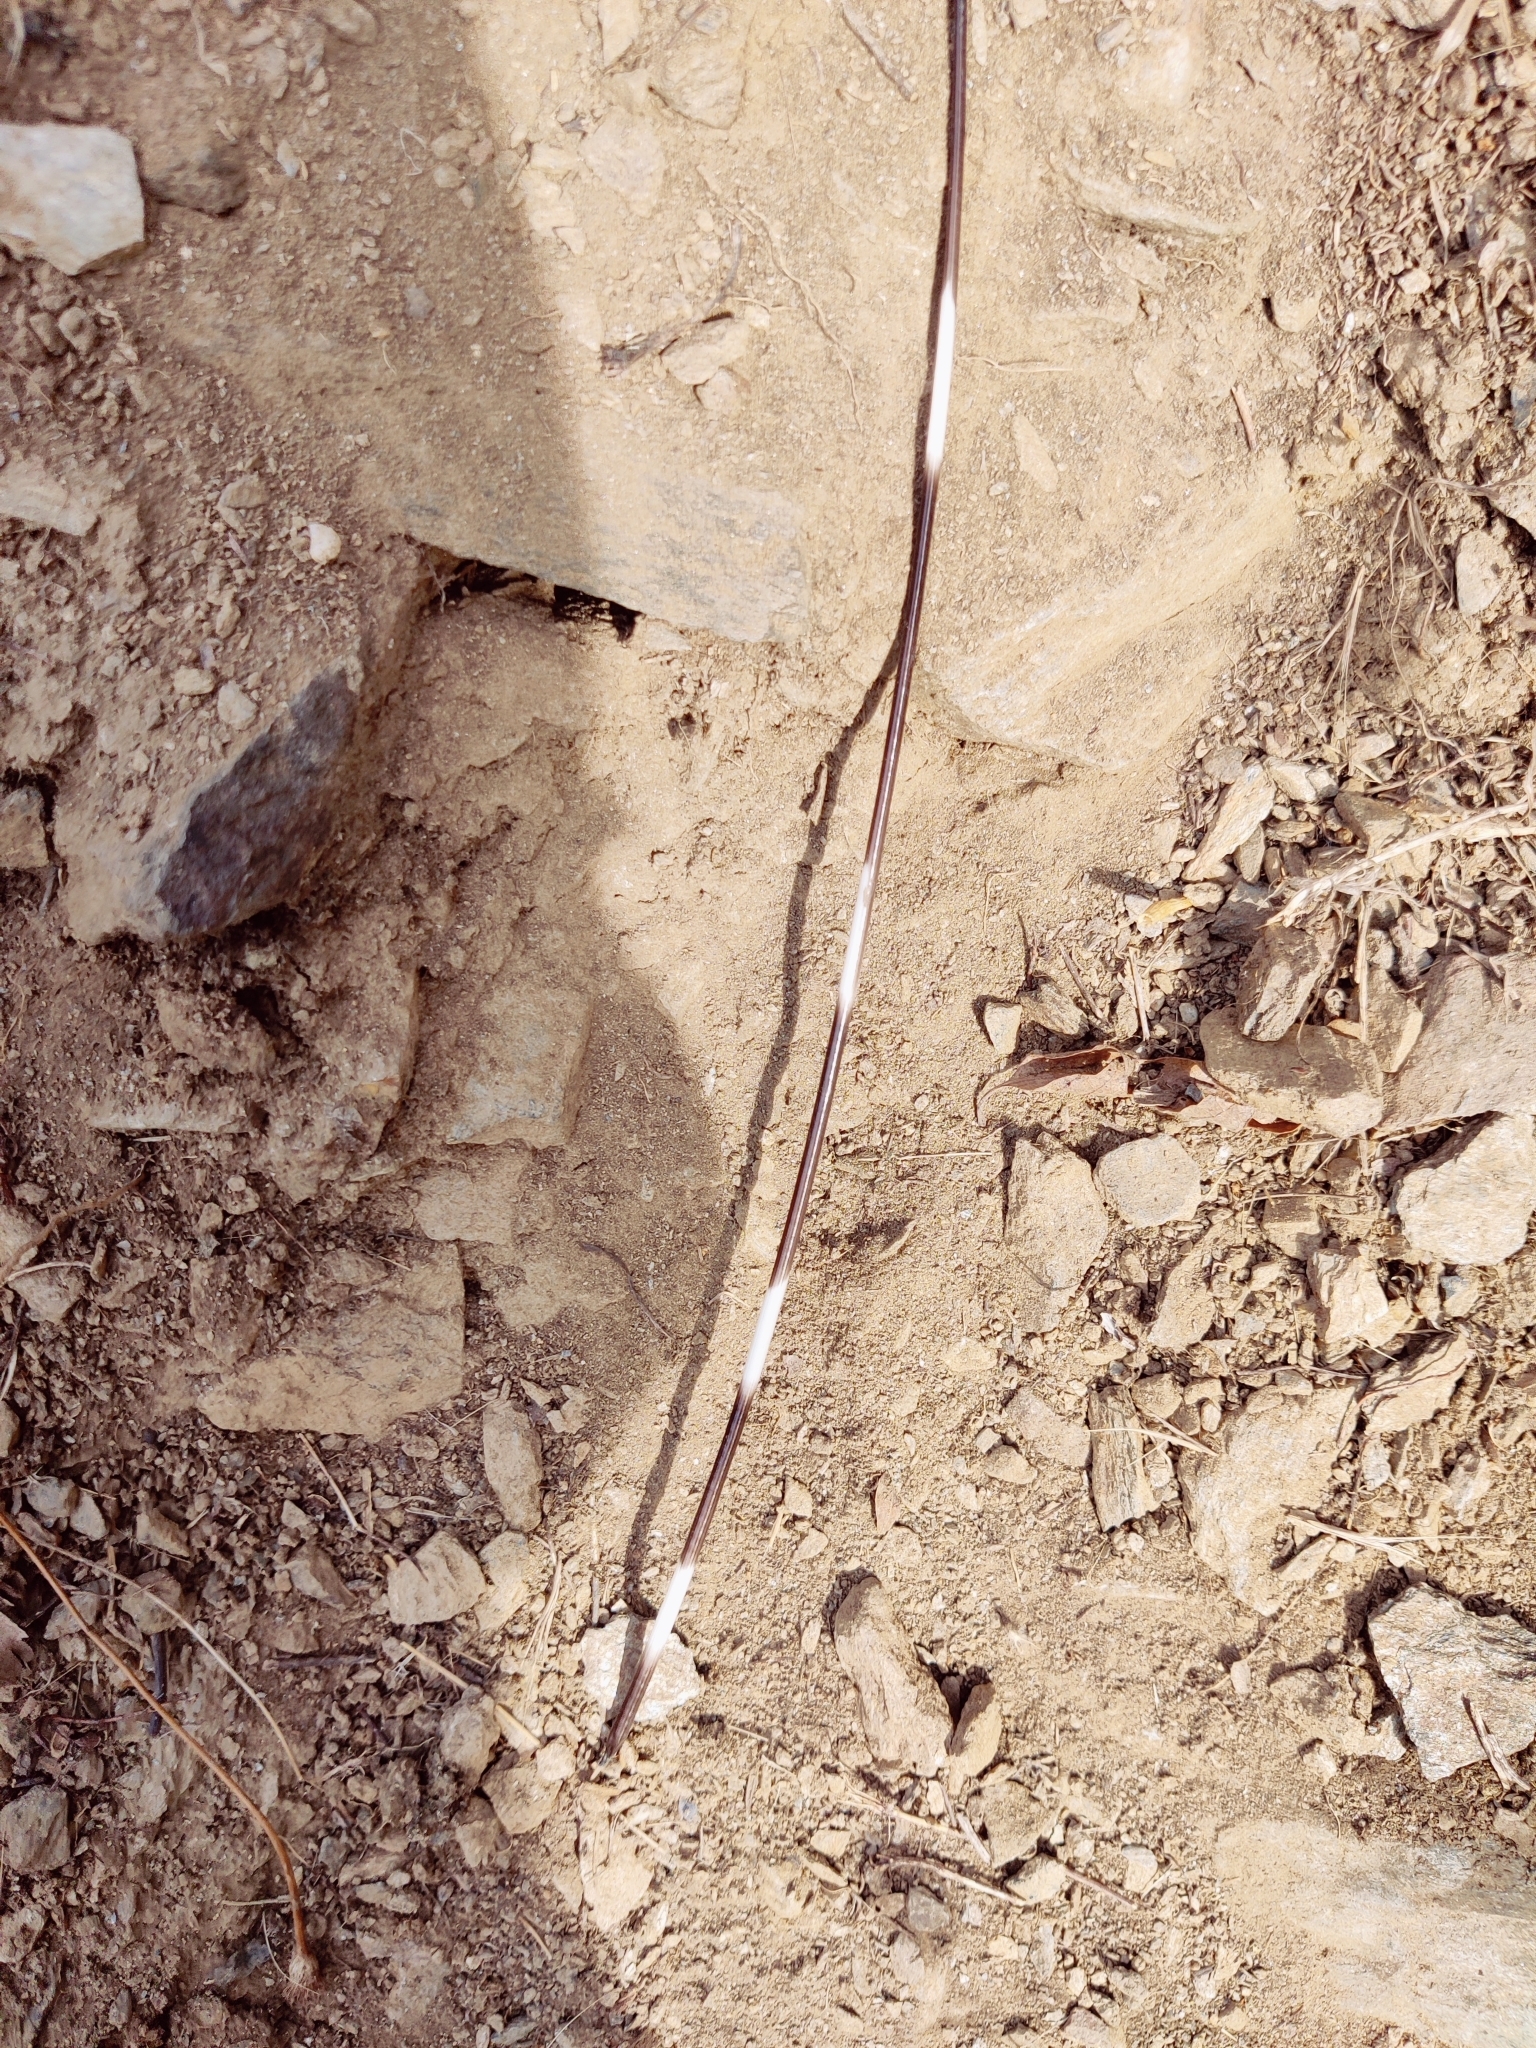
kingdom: Animalia
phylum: Chordata
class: Mammalia
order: Rodentia
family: Hystricidae
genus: Hystrix
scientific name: Hystrix indica
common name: Indian crested porcupine
